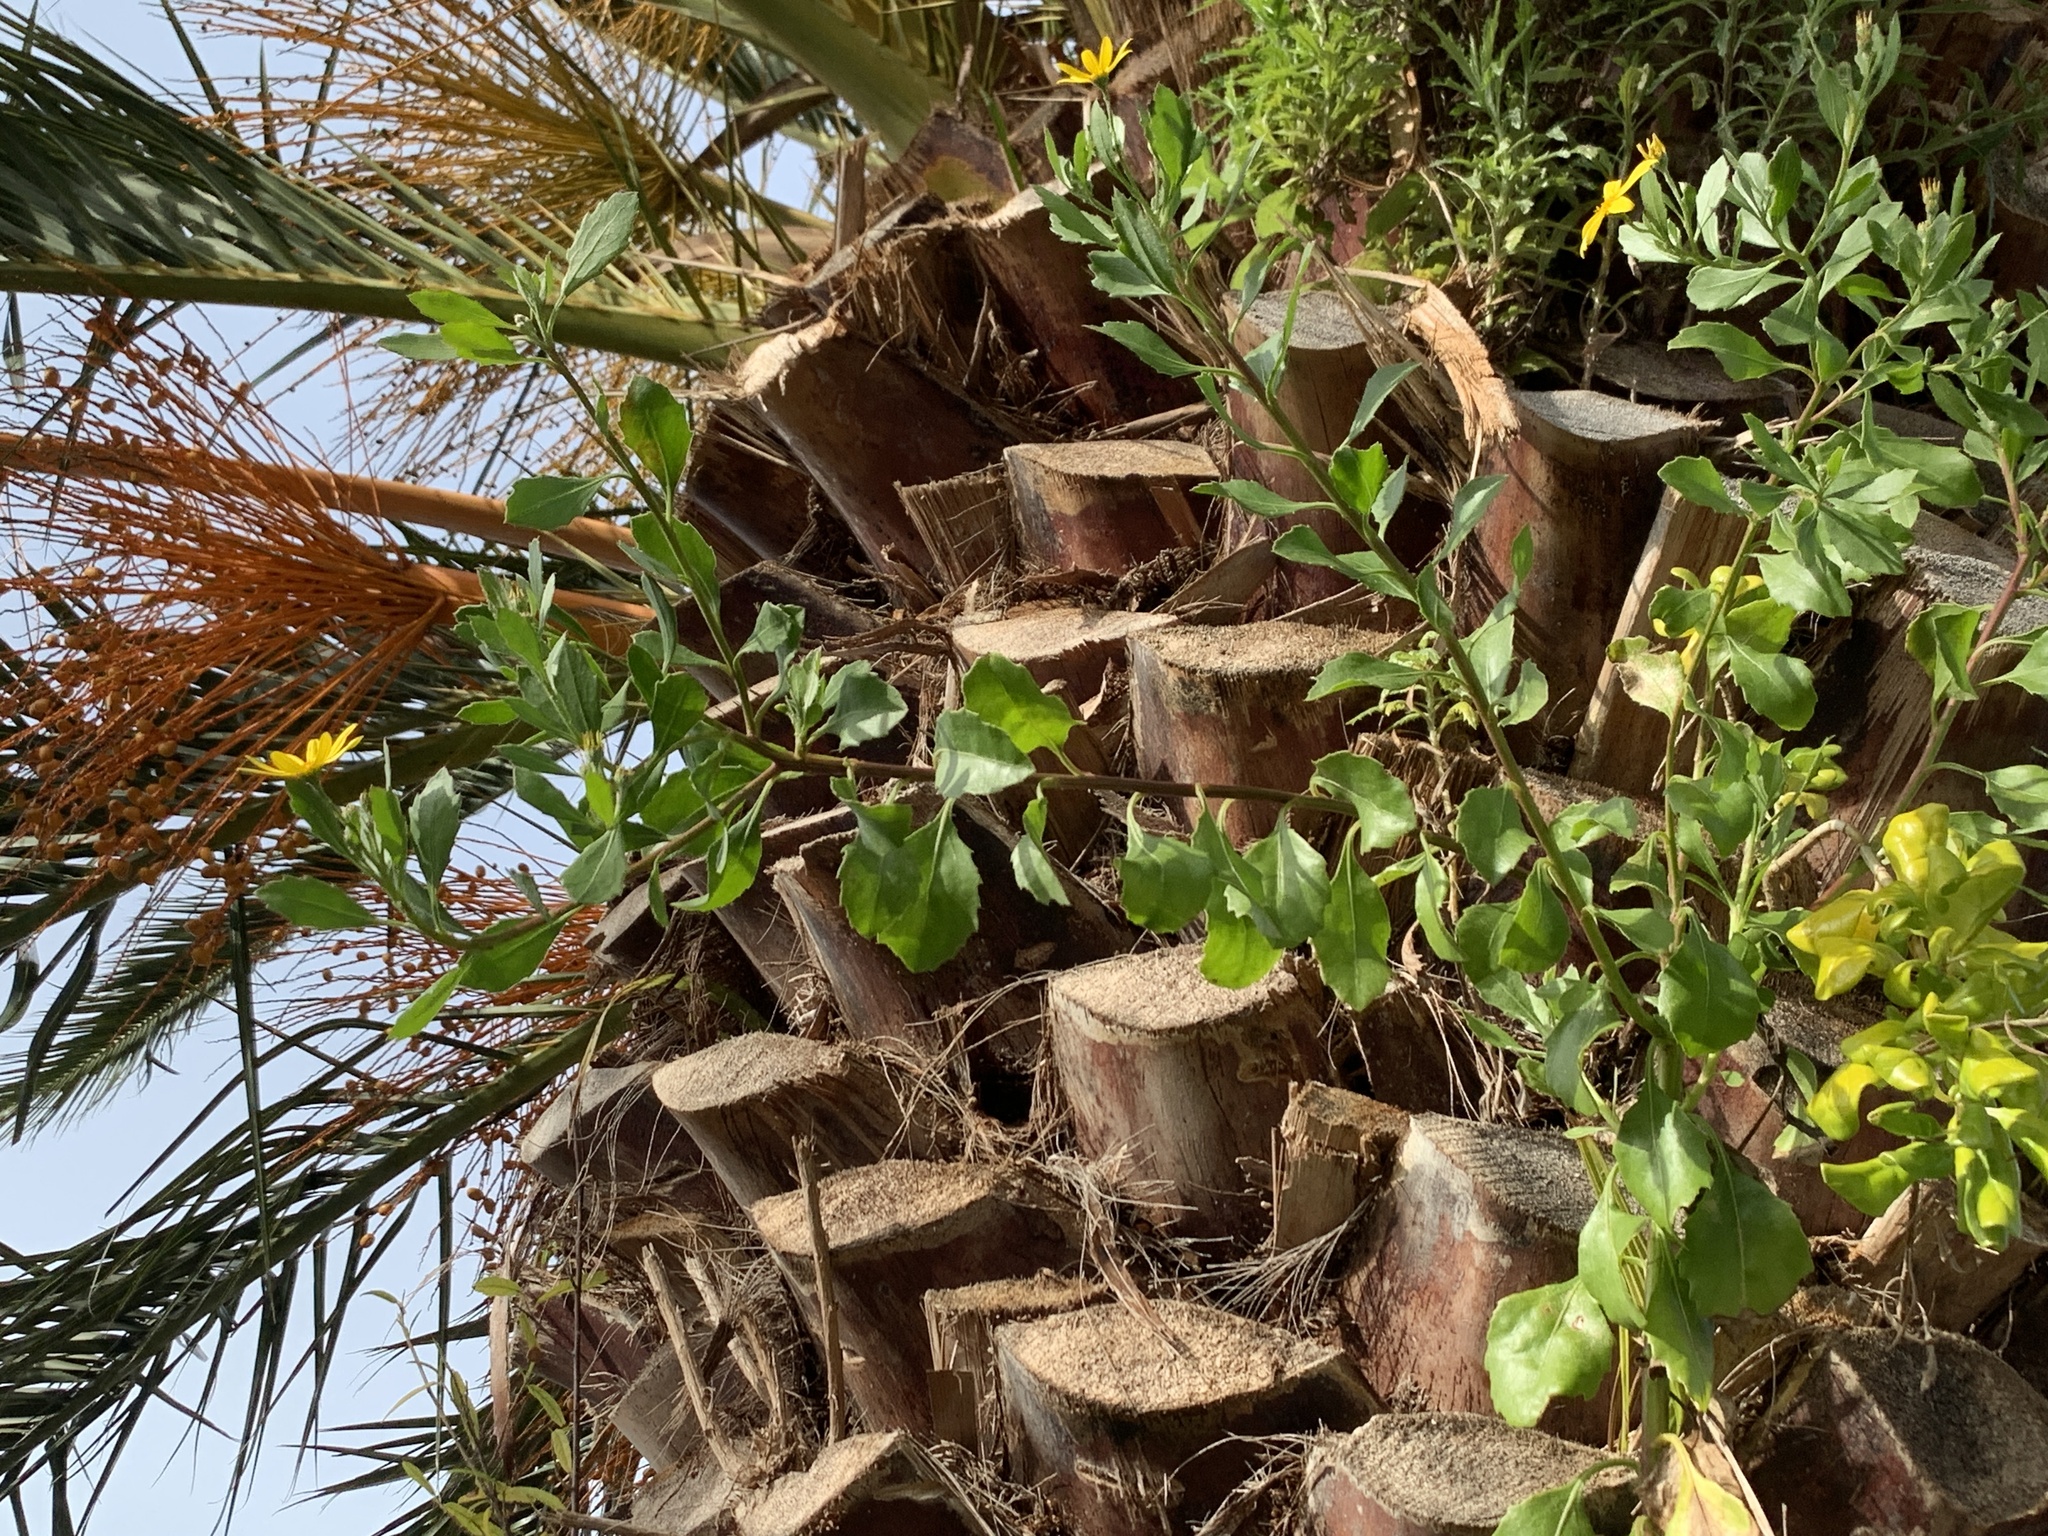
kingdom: Plantae
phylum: Tracheophyta
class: Magnoliopsida
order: Asterales
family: Asteraceae
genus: Osteospermum
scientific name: Osteospermum moniliferum
